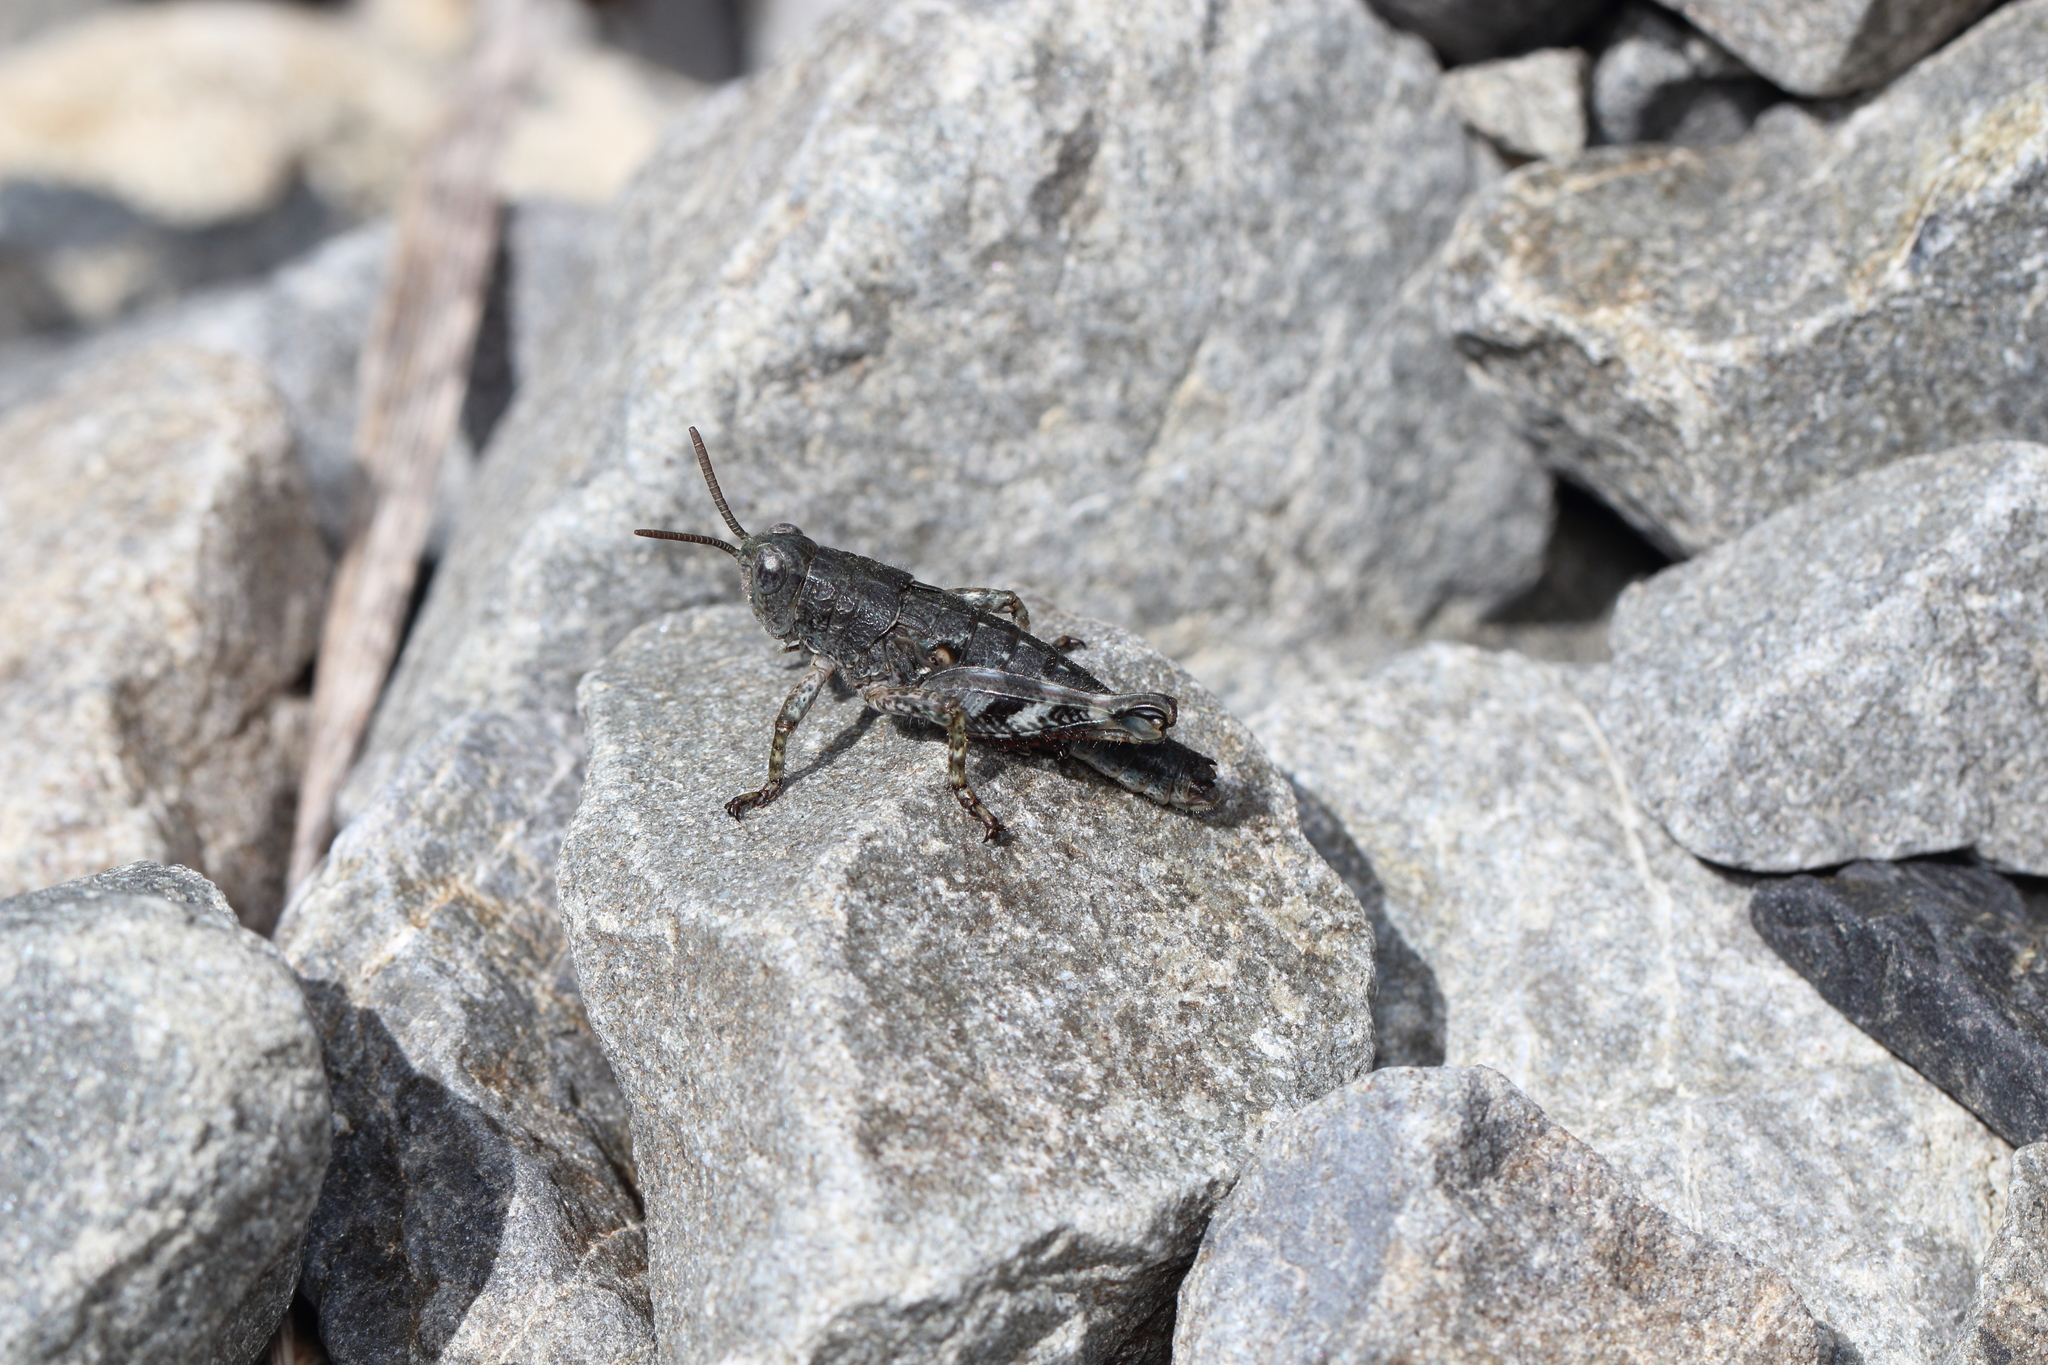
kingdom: Animalia
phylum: Arthropoda
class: Insecta
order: Orthoptera
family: Acrididae
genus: Sigaus
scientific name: Sigaus
